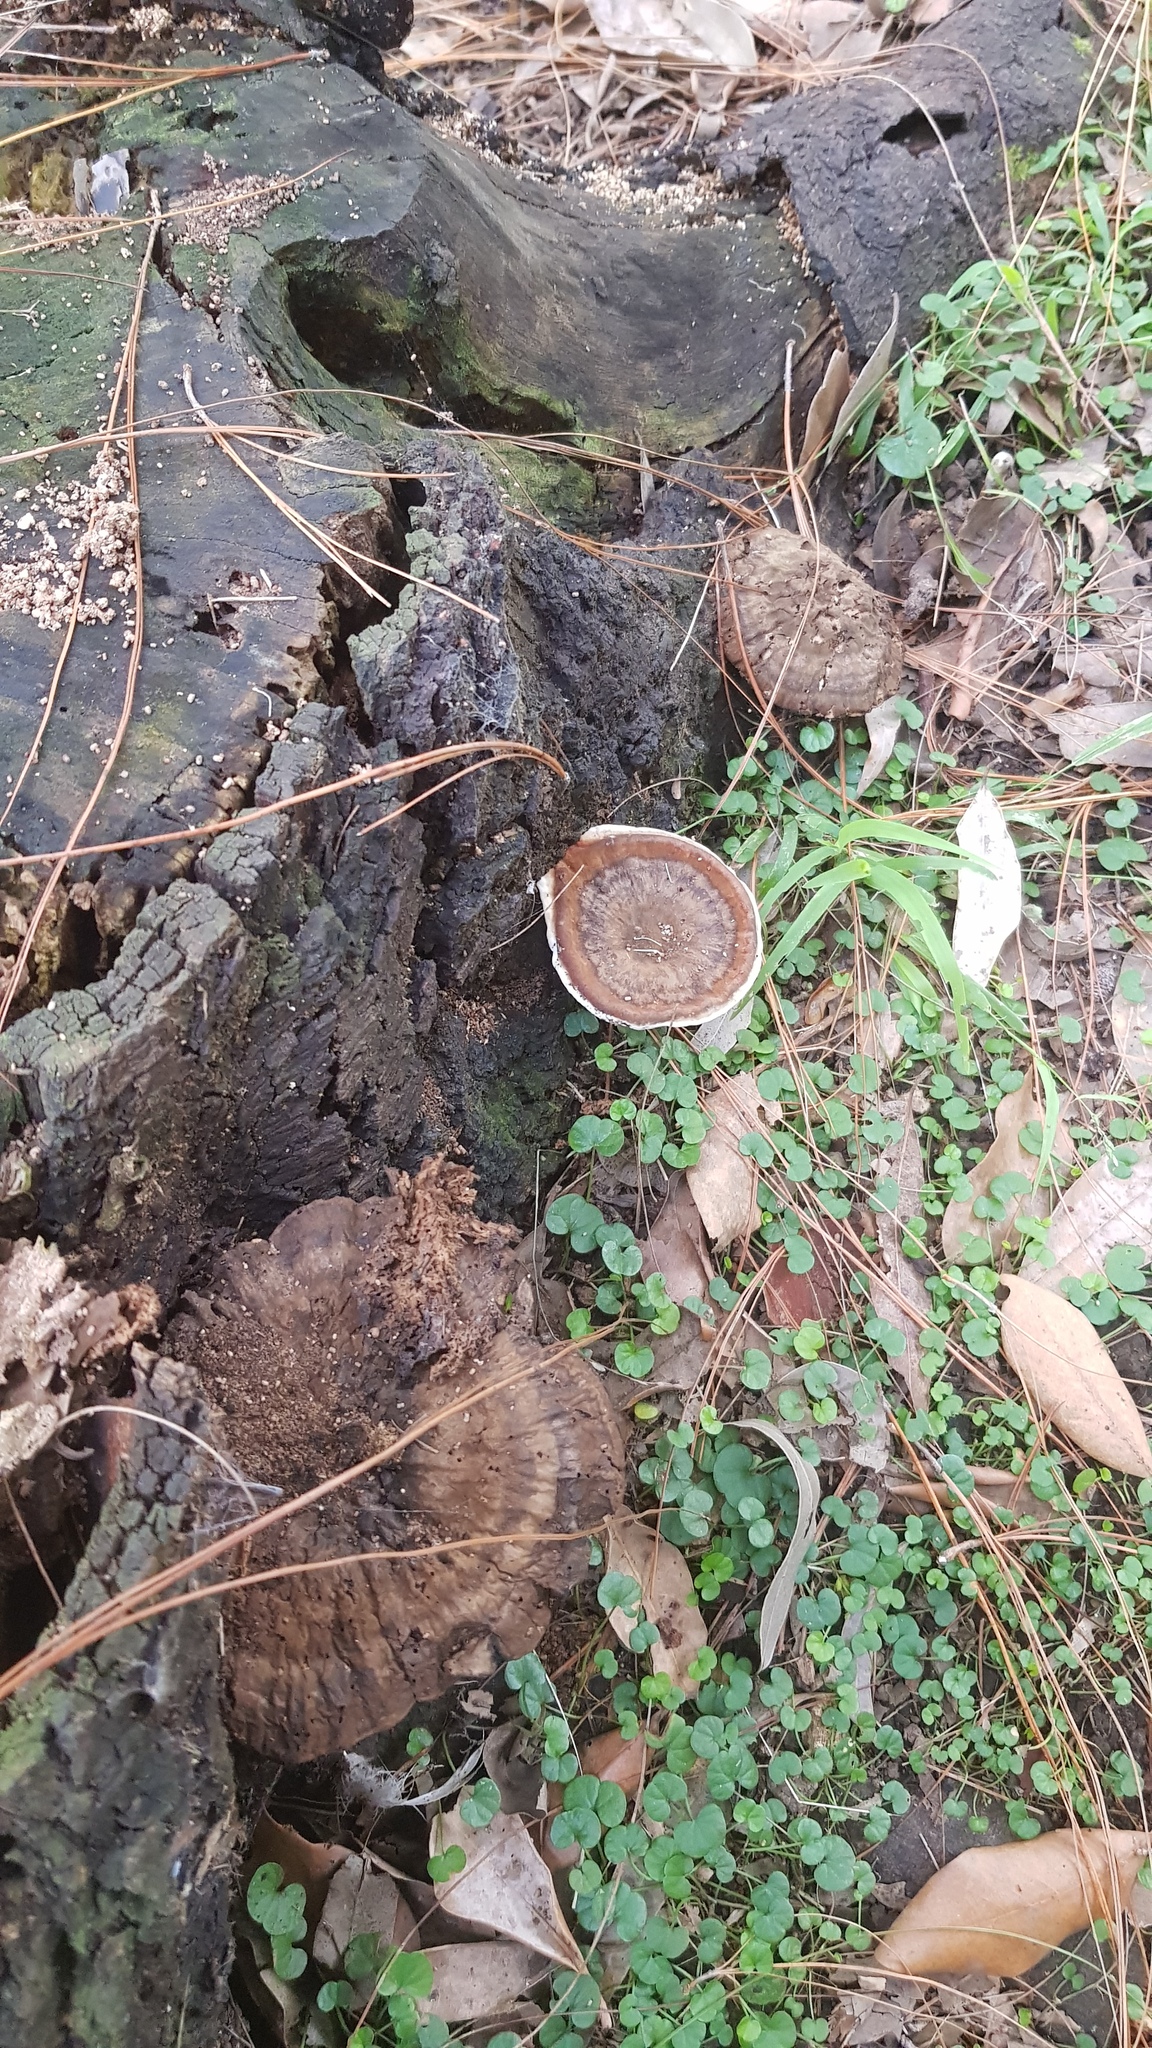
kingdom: Fungi
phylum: Basidiomycota
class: Agaricomycetes
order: Polyporales
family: Ganodermataceae
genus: Sanguinoderma
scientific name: Sanguinoderma rude
